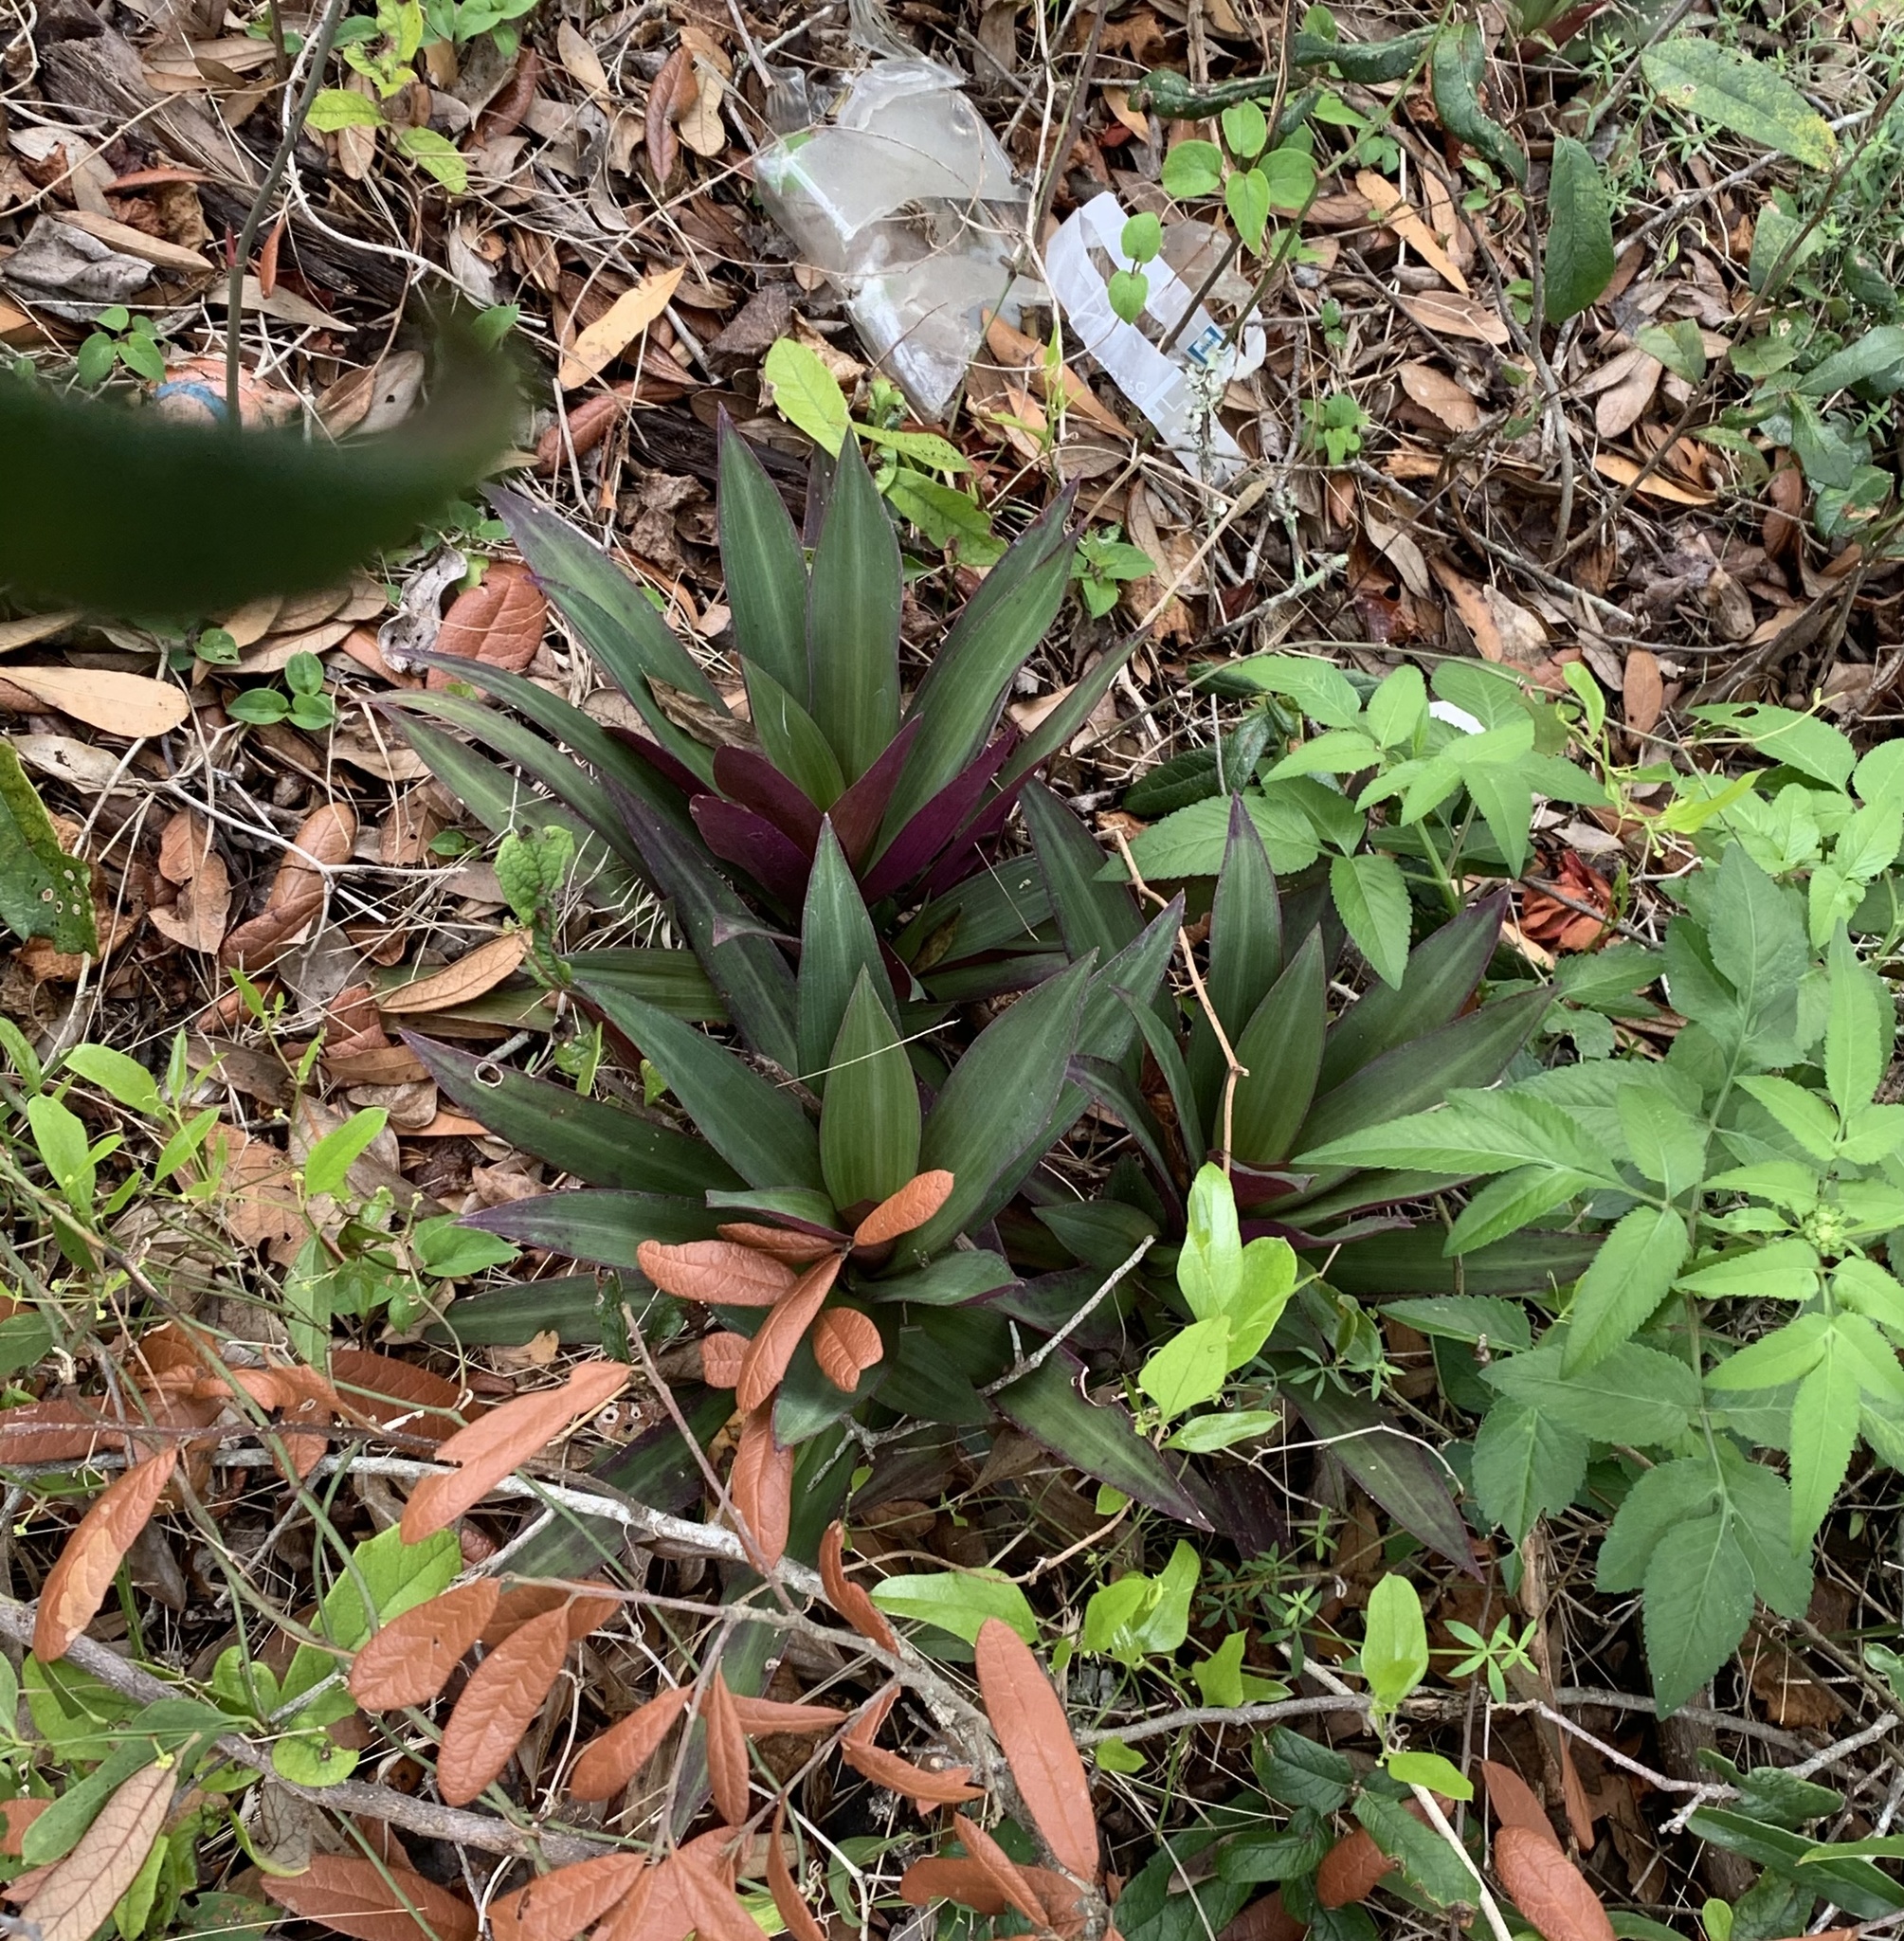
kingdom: Plantae
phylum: Tracheophyta
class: Liliopsida
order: Commelinales
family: Commelinaceae
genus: Tradescantia
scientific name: Tradescantia spathacea
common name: Boatlily
